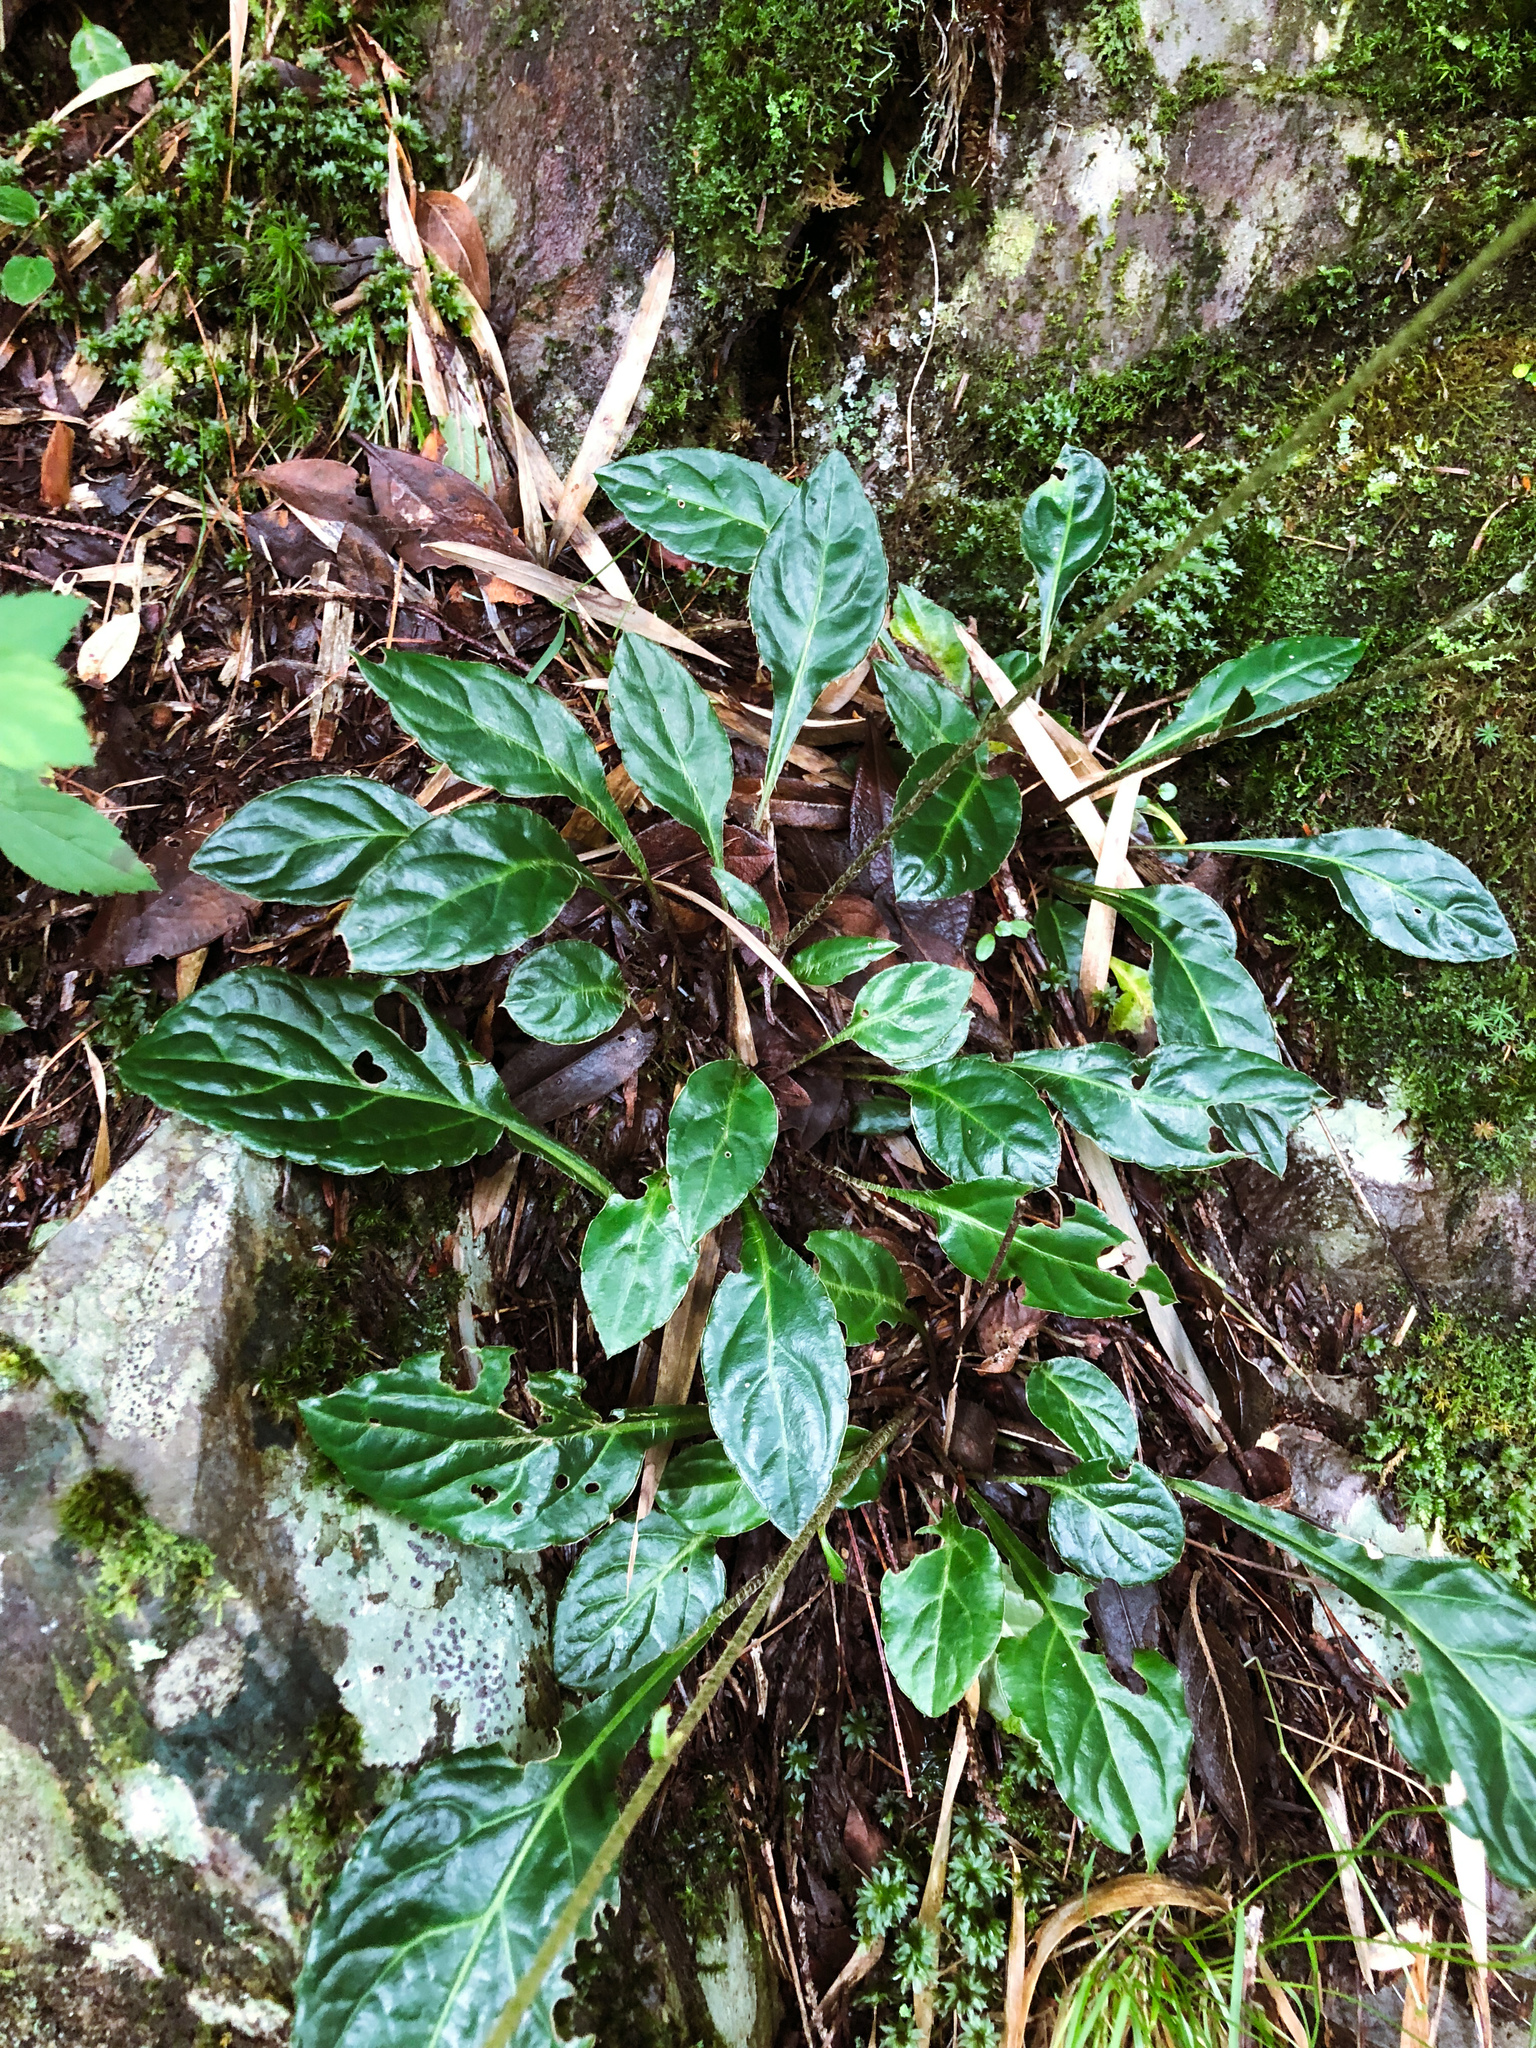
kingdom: Plantae
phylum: Tracheophyta
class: Magnoliopsida
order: Asterales
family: Asteraceae
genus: Ainsliaea
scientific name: Ainsliaea henryi
